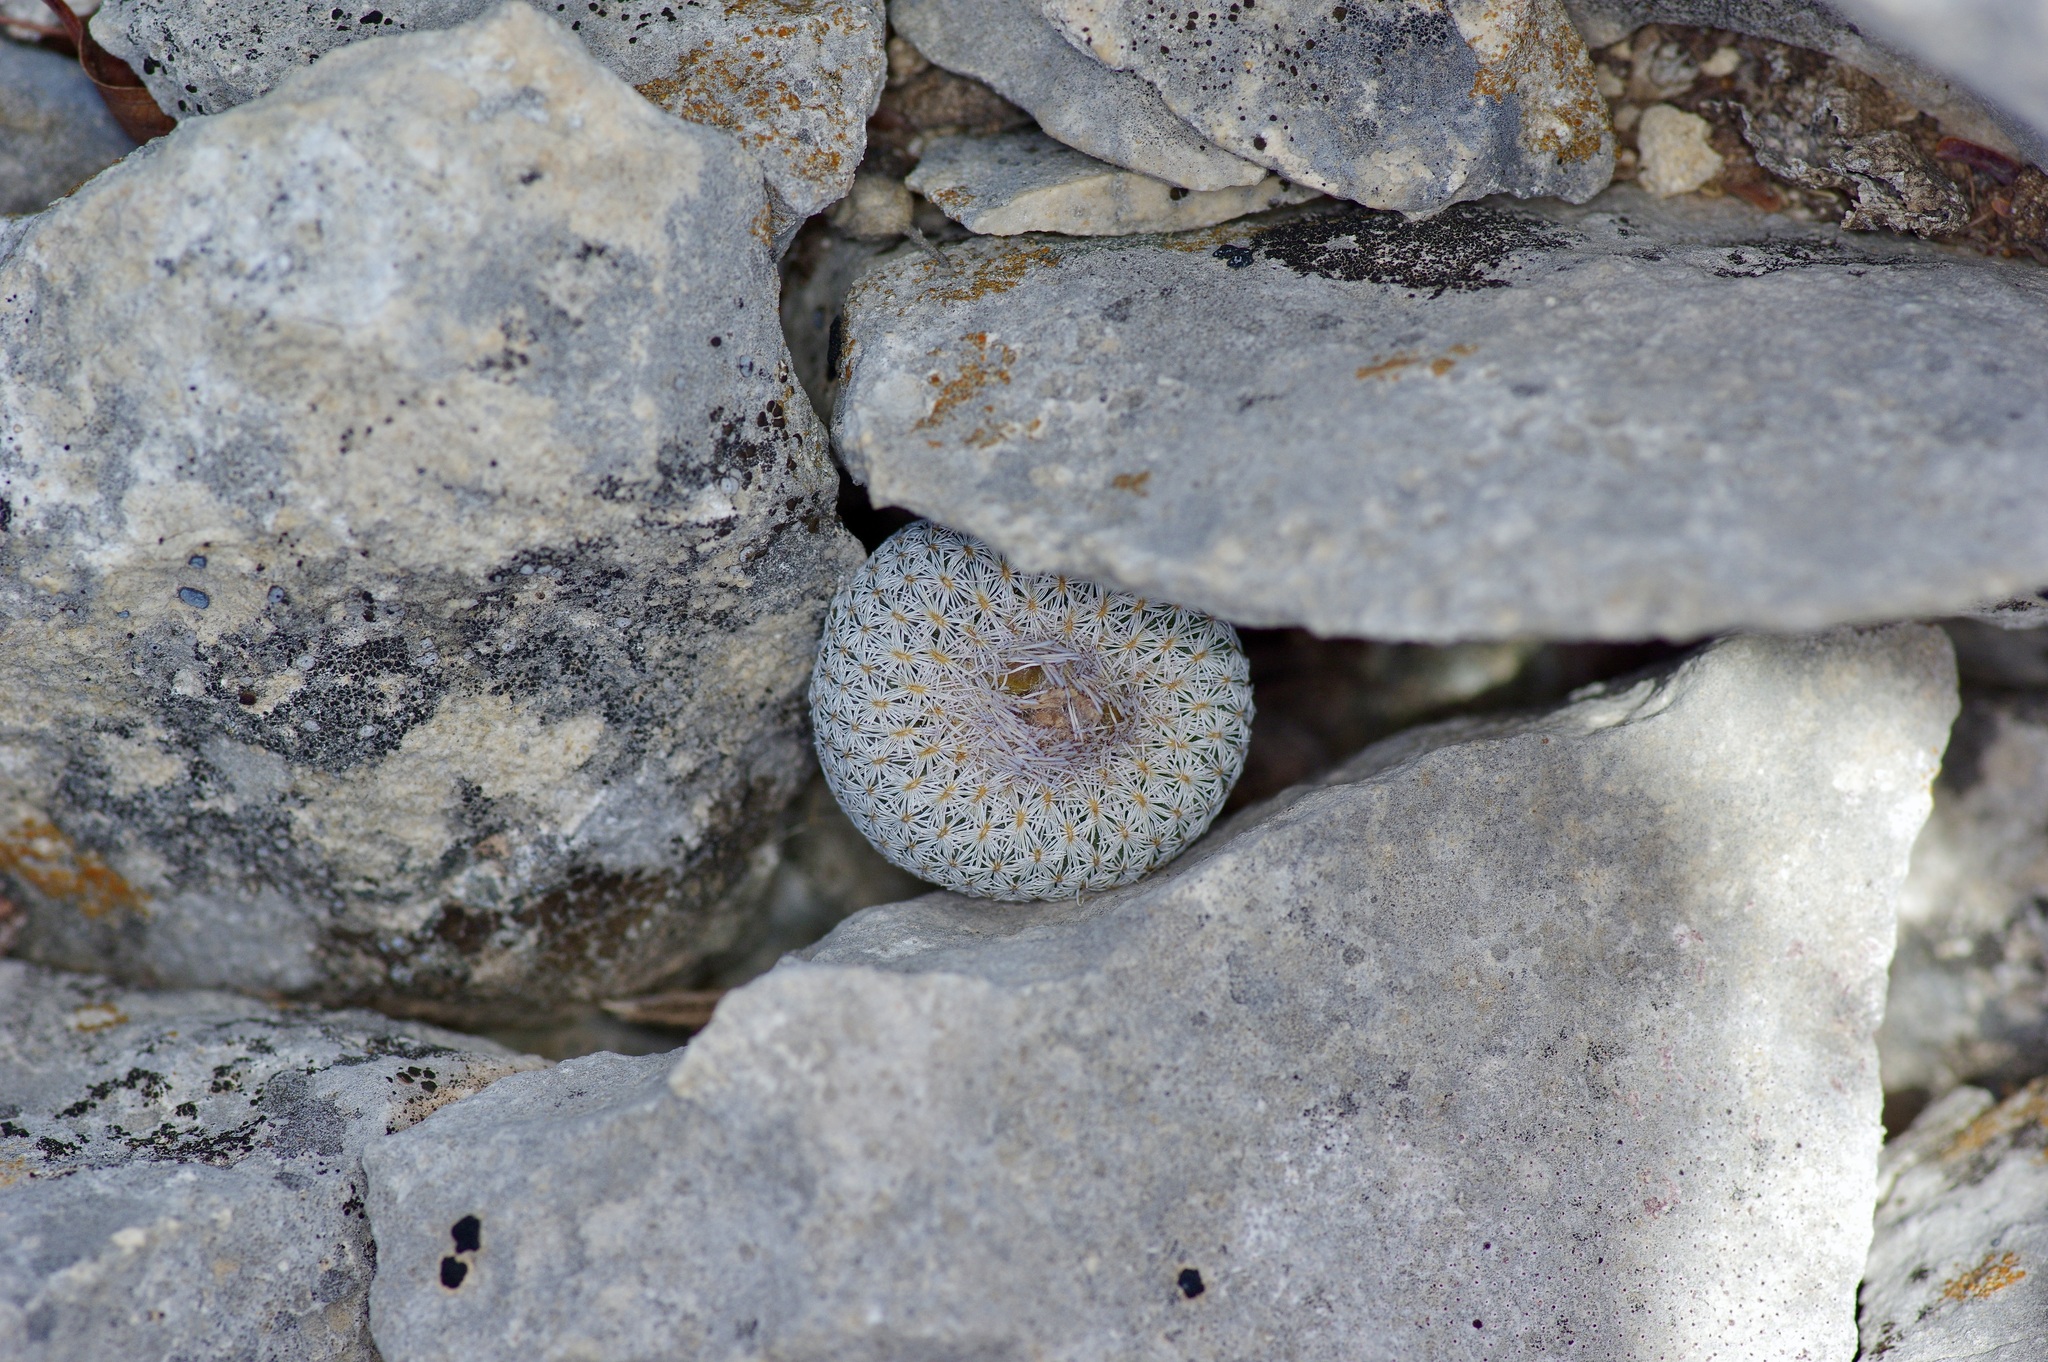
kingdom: Plantae
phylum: Tracheophyta
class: Magnoliopsida
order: Caryophyllales
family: Cactaceae
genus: Epithelantha
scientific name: Epithelantha micromeris
